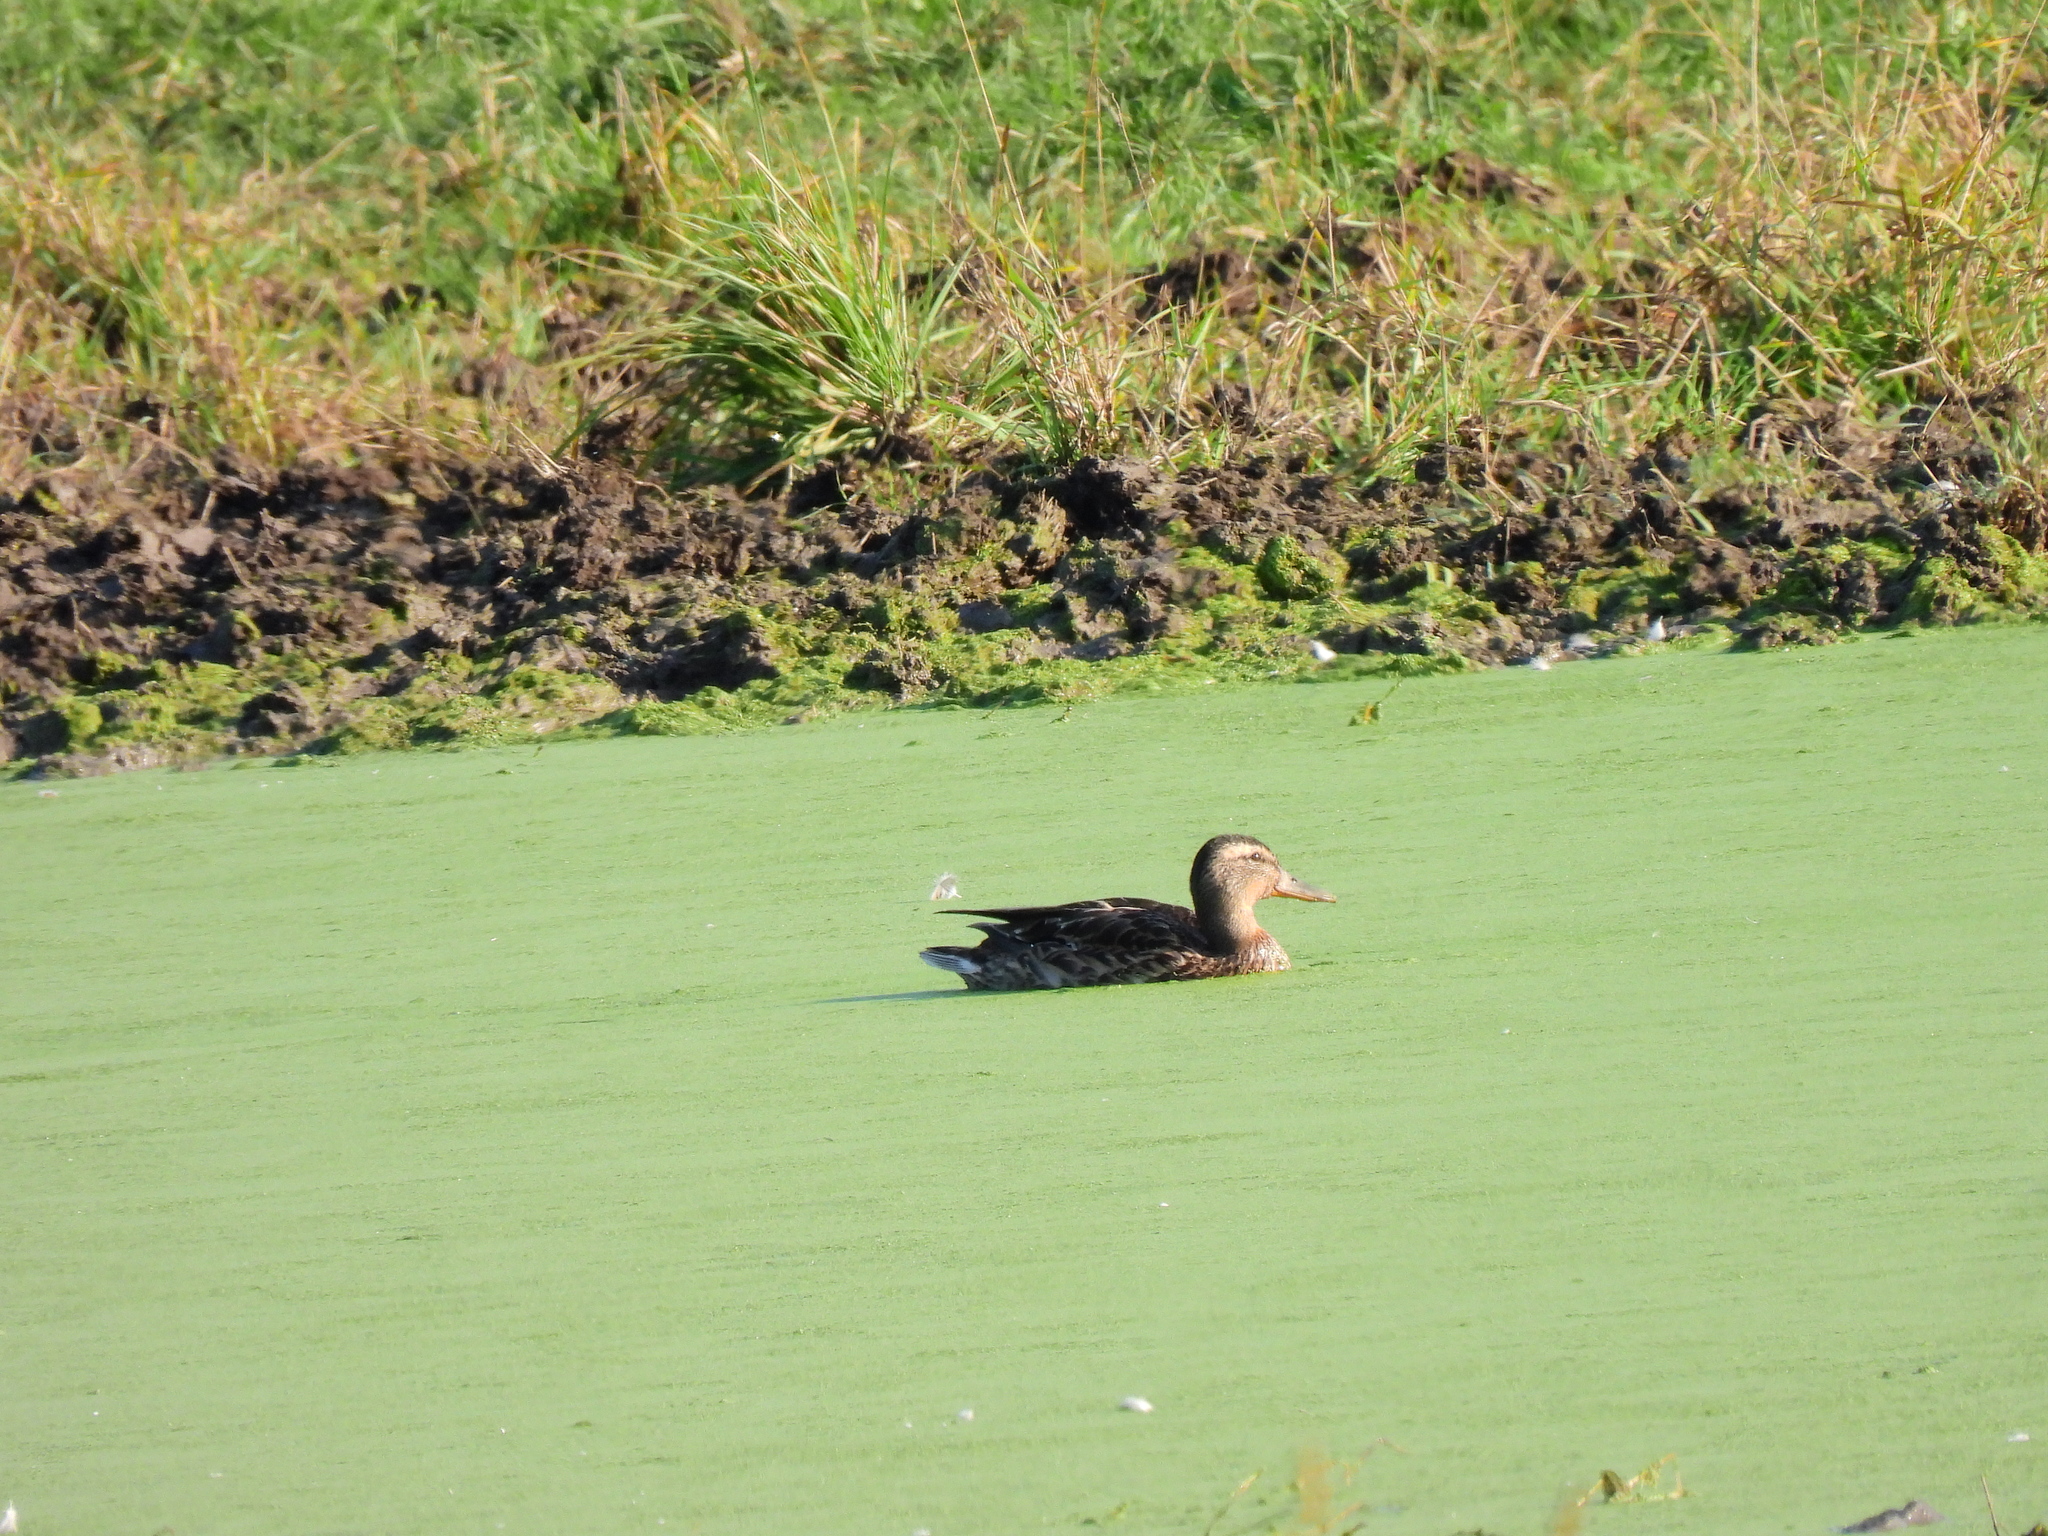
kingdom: Animalia
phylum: Chordata
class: Aves
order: Anseriformes
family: Anatidae
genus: Anas
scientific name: Anas platyrhynchos
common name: Mallard
